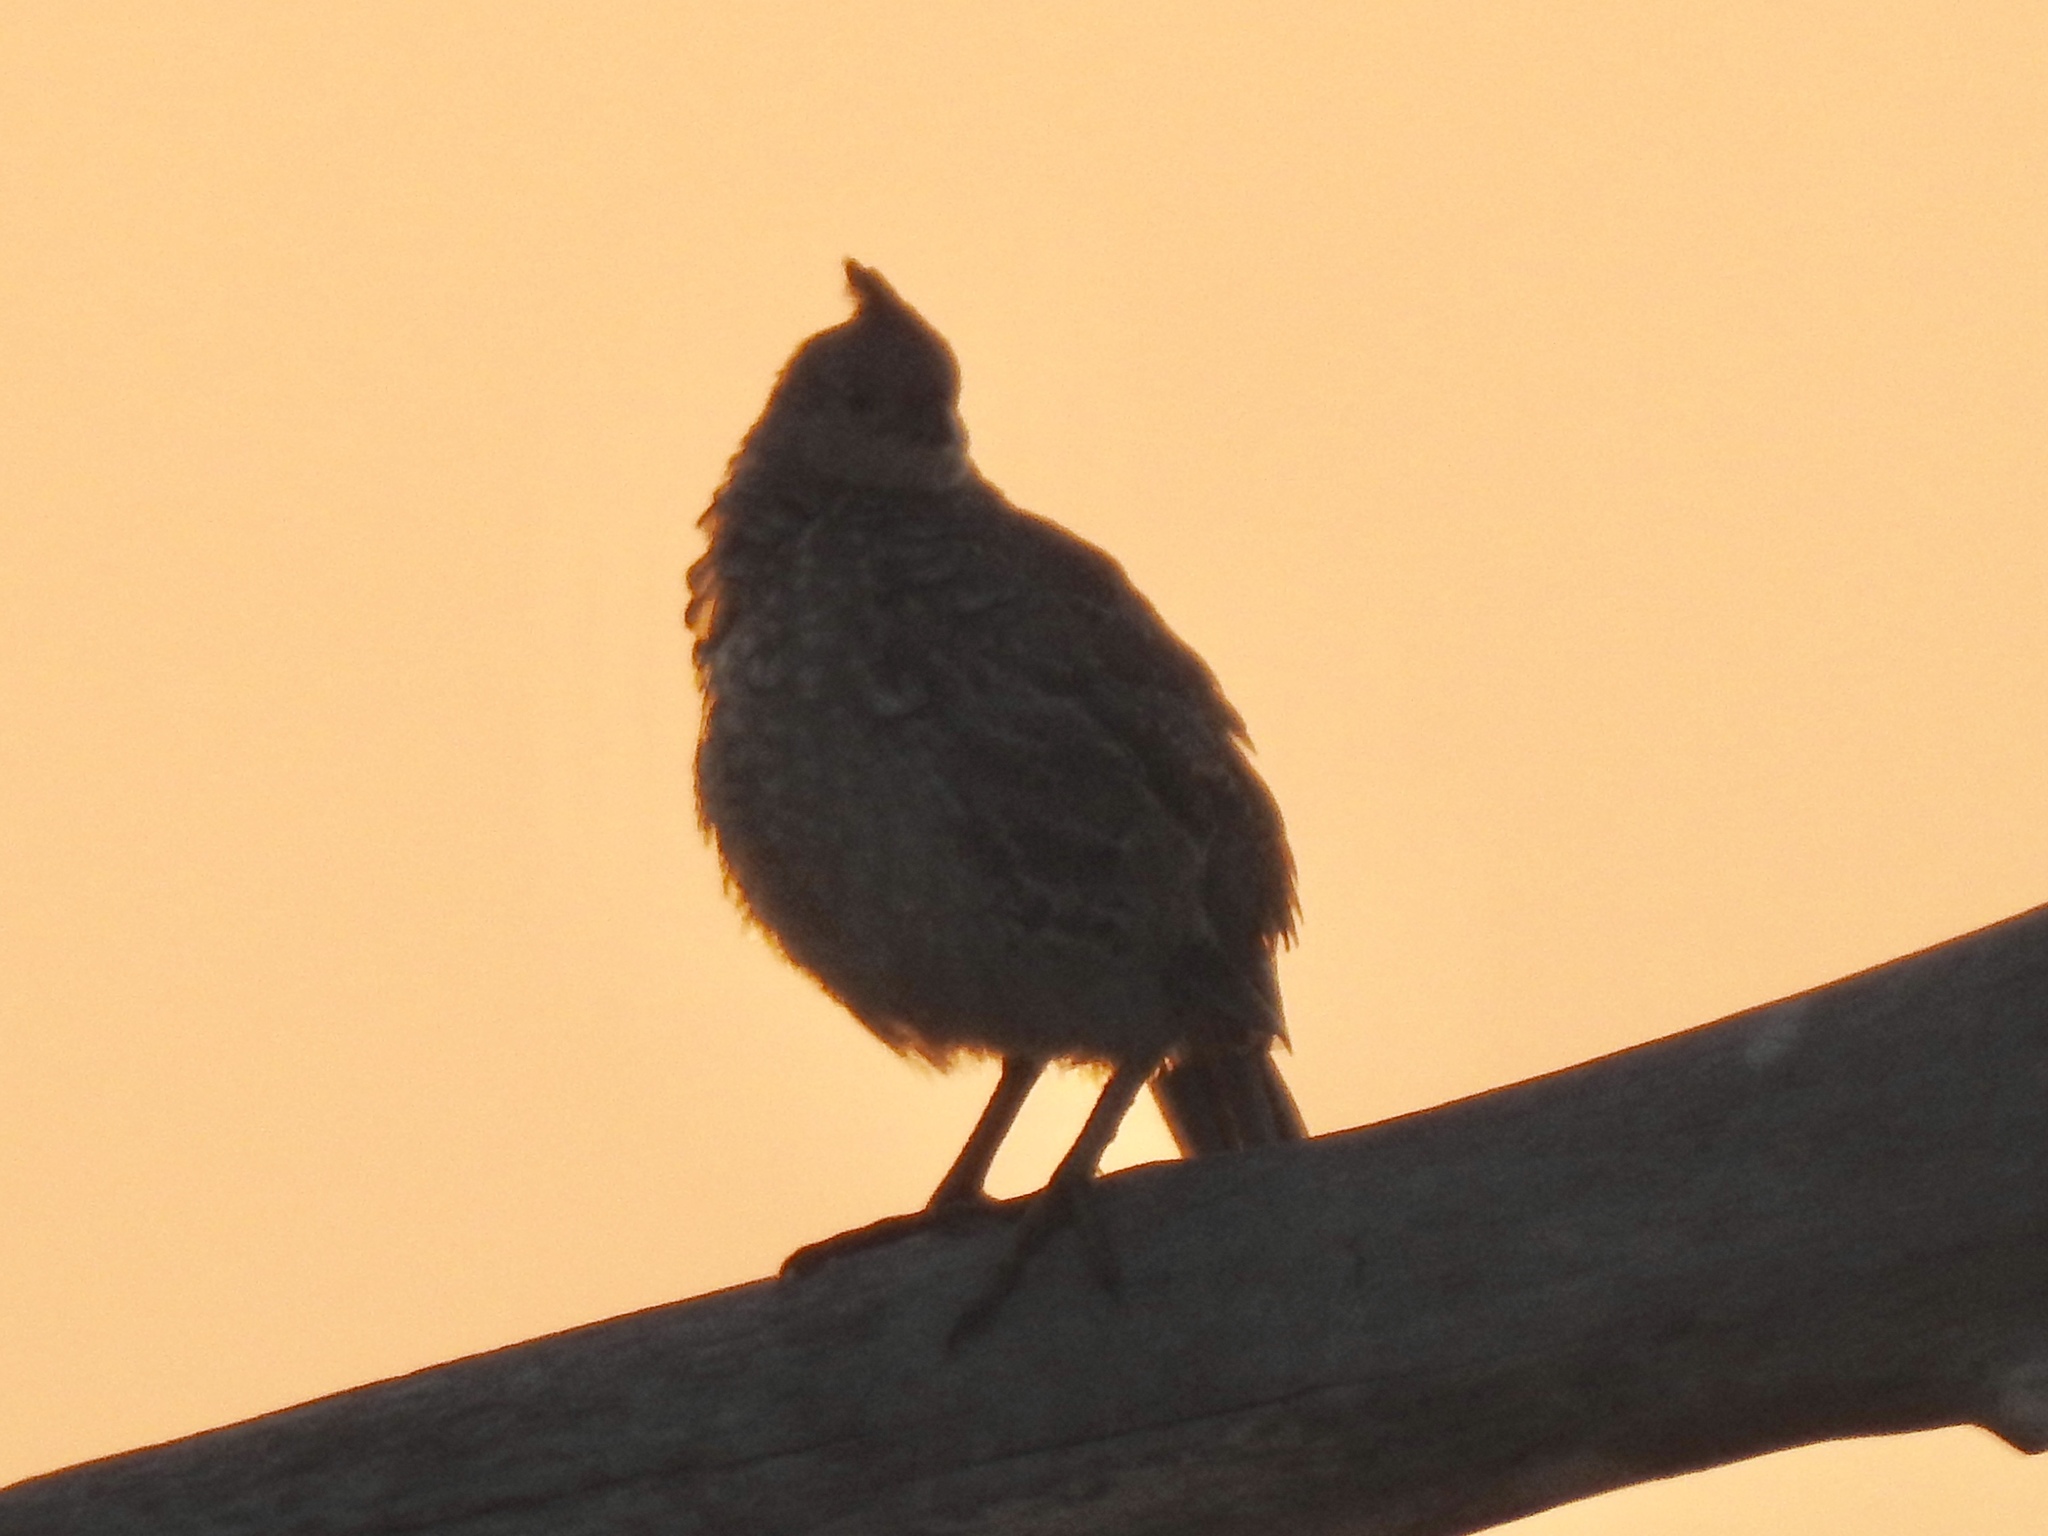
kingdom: Animalia
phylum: Chordata
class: Aves
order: Galliformes
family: Odontophoridae
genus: Callipepla
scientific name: Callipepla squamata
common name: Scaled quail
